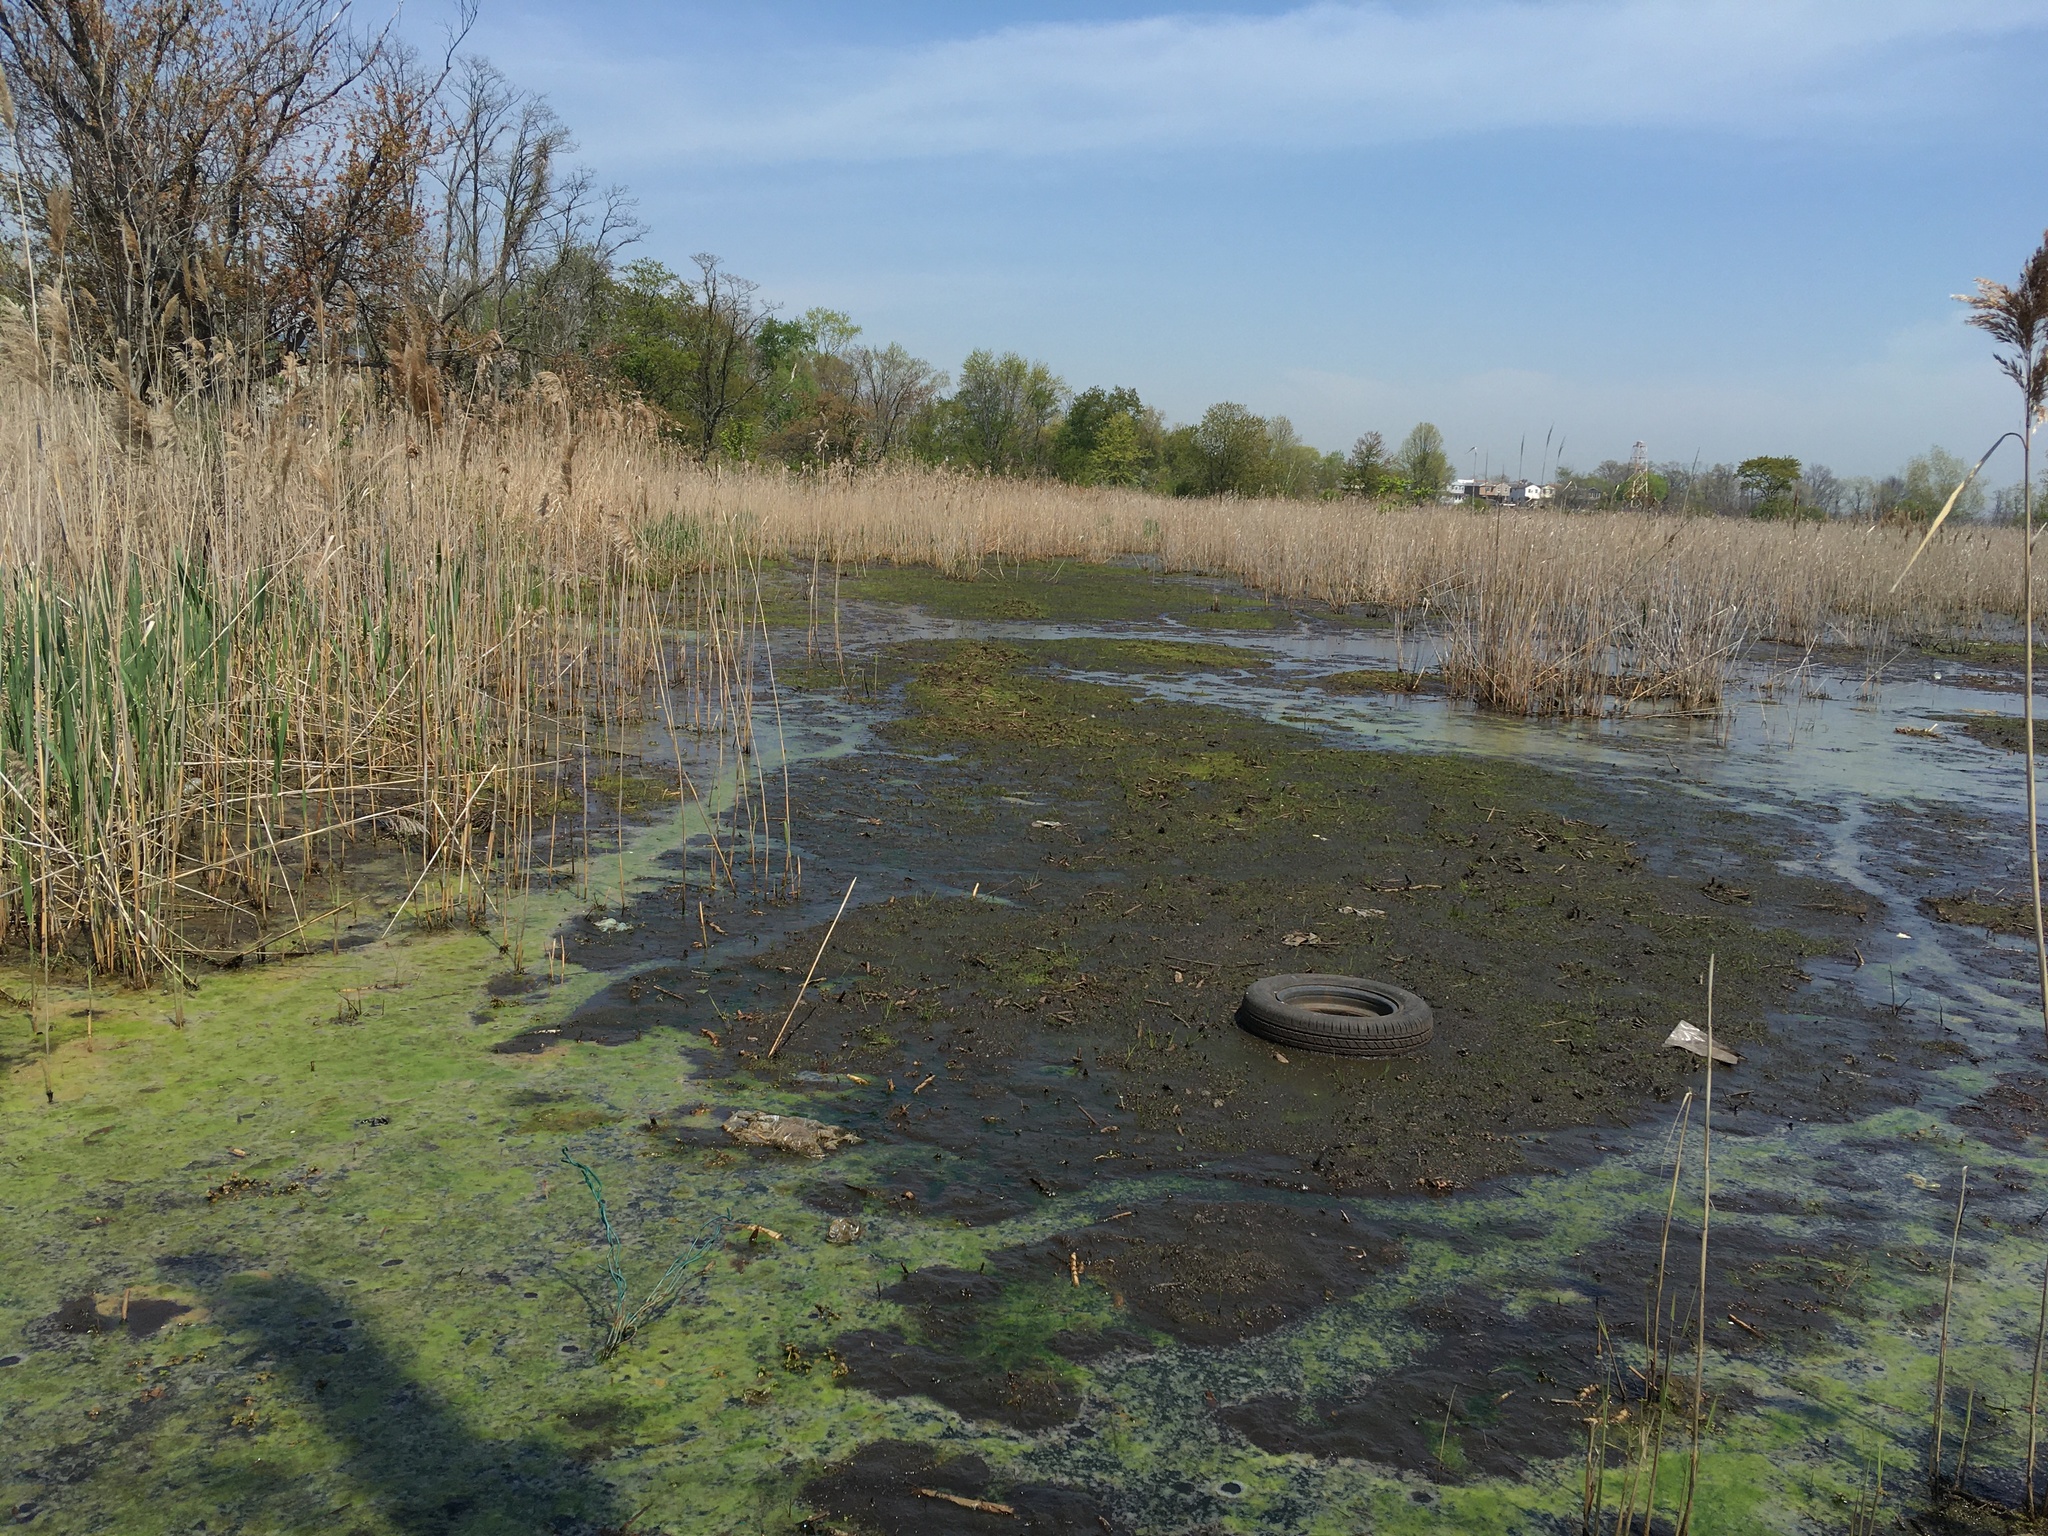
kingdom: Plantae
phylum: Tracheophyta
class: Liliopsida
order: Poales
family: Poaceae
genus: Phragmites
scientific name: Phragmites australis
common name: Common reed
